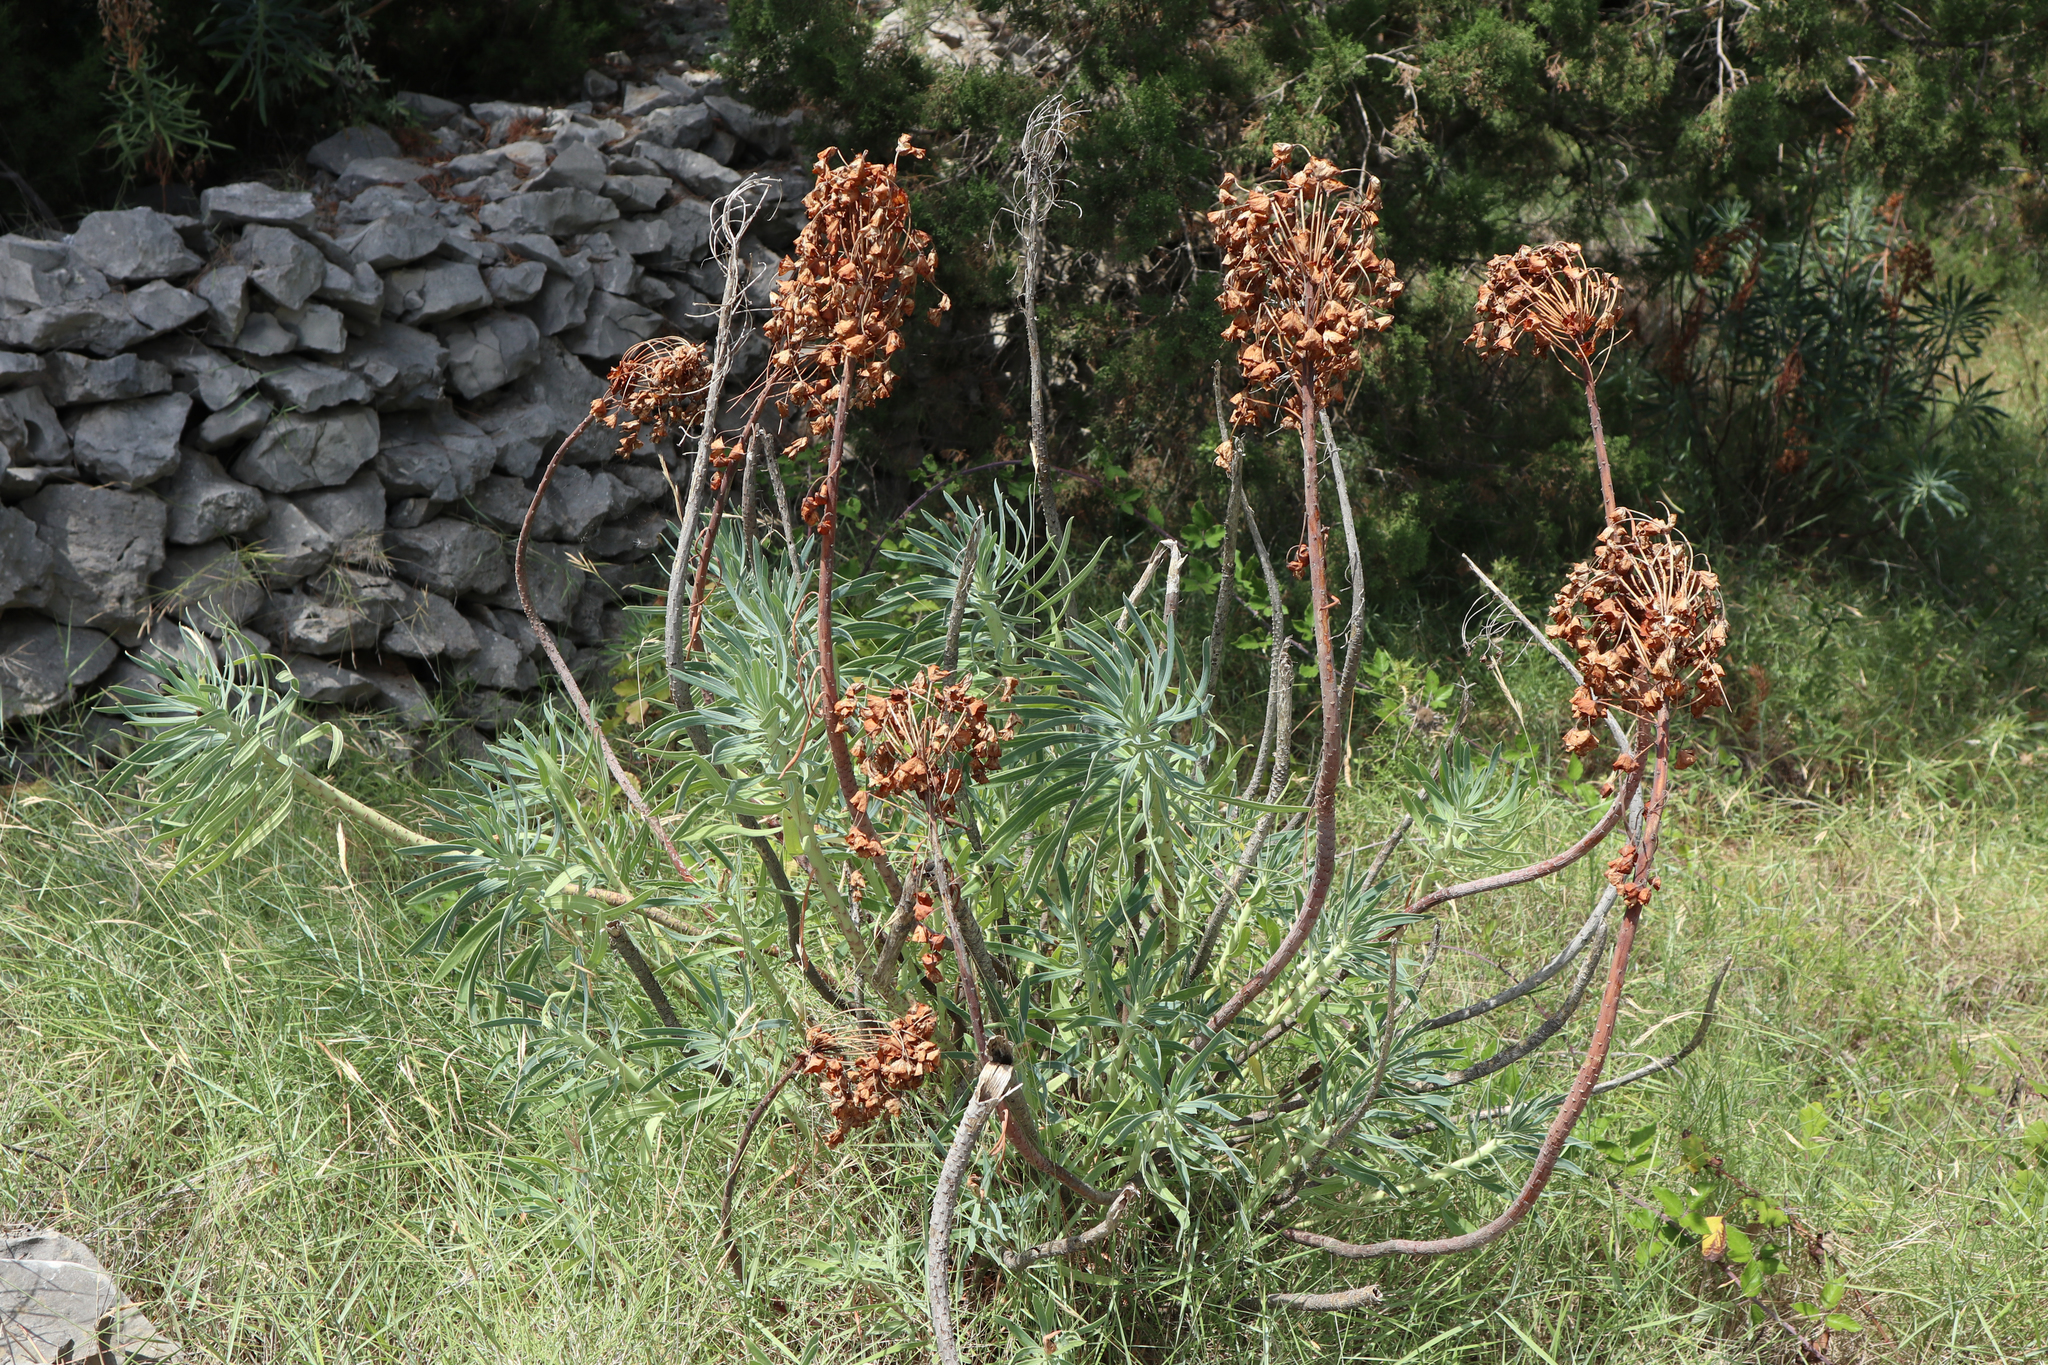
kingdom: Plantae
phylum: Tracheophyta
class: Magnoliopsida
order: Malpighiales
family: Euphorbiaceae
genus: Euphorbia
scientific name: Euphorbia characias
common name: Mediterranean spurge
